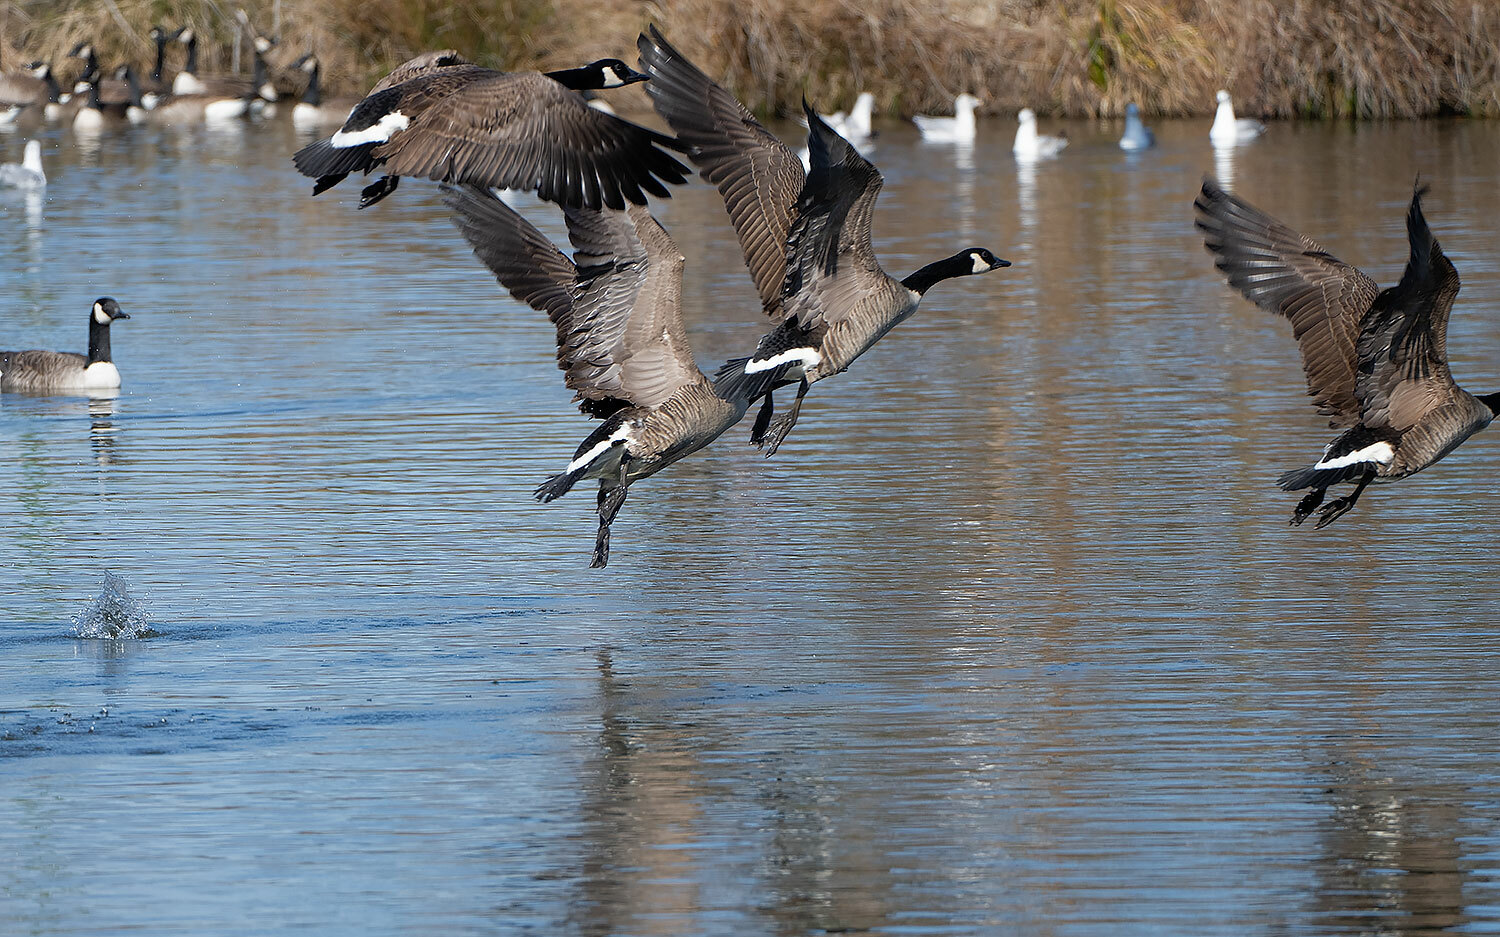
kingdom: Animalia
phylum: Chordata
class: Aves
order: Anseriformes
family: Anatidae
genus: Branta
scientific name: Branta canadensis
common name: Canada goose
